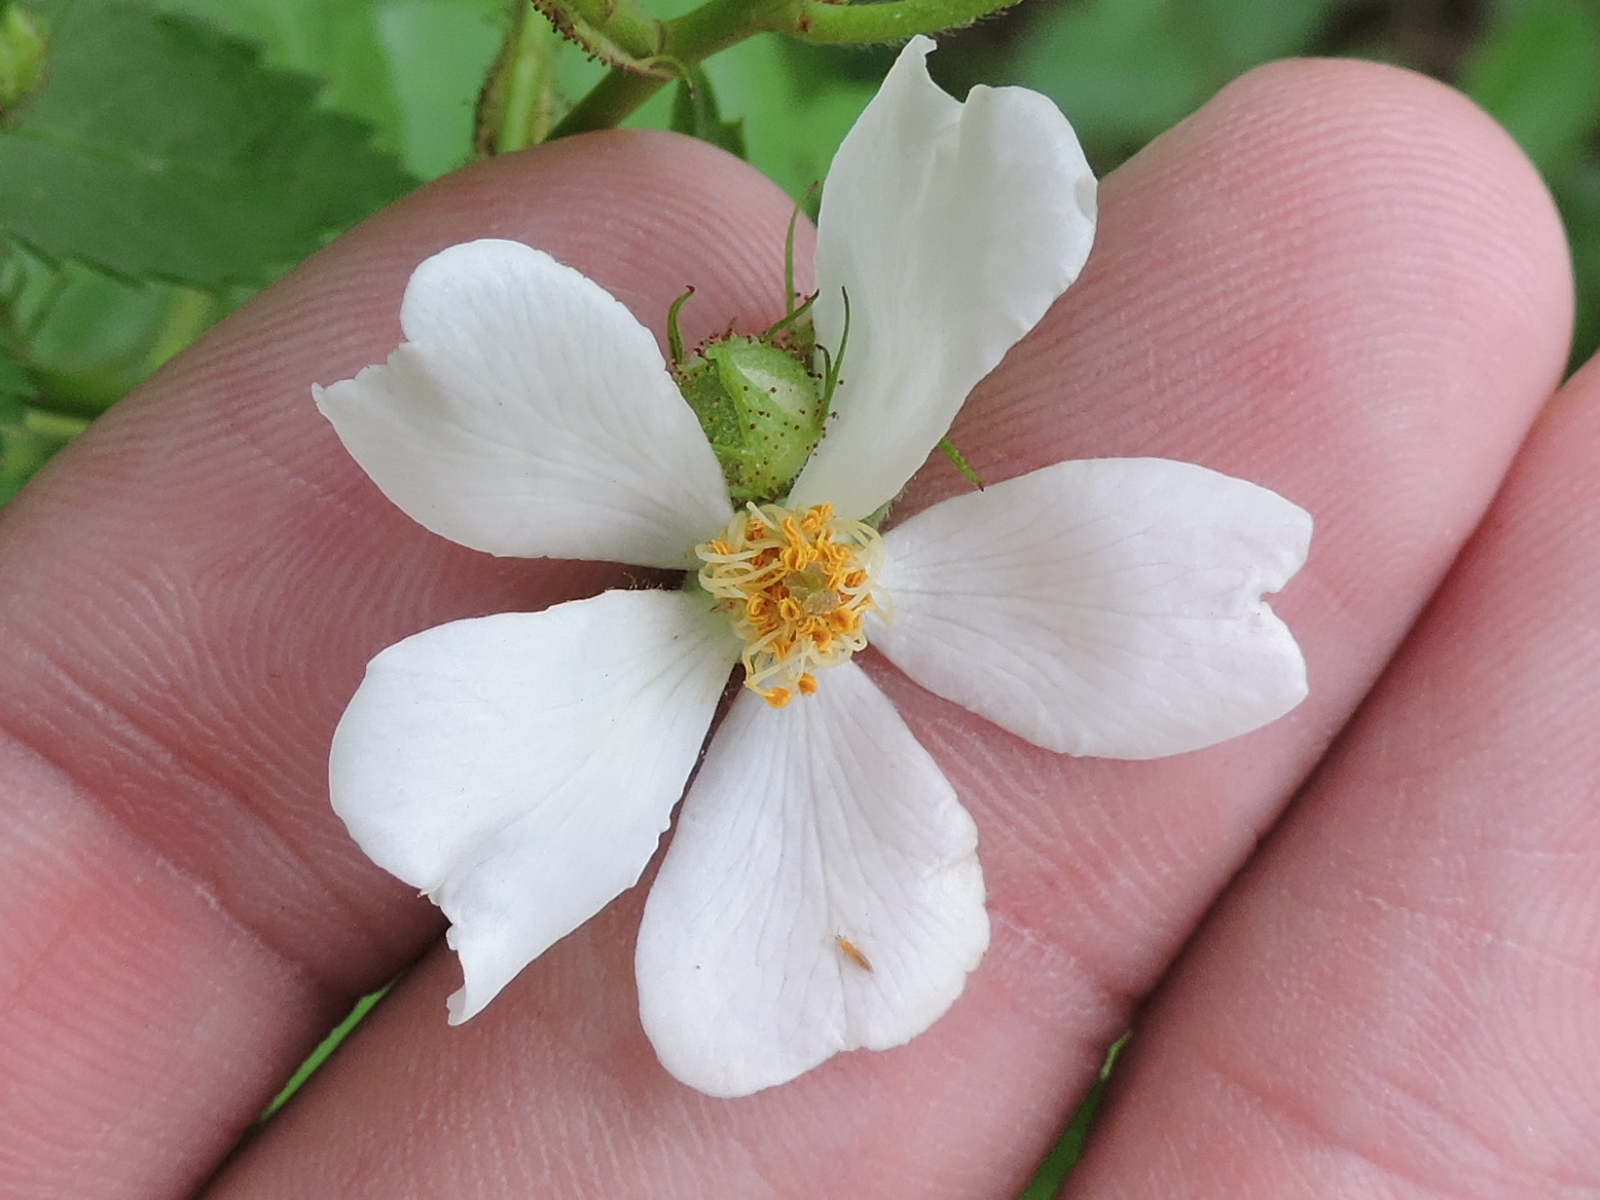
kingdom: Plantae
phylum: Tracheophyta
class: Magnoliopsida
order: Rosales
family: Rosaceae
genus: Rosa
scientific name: Rosa multiflora
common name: Multiflora rose
